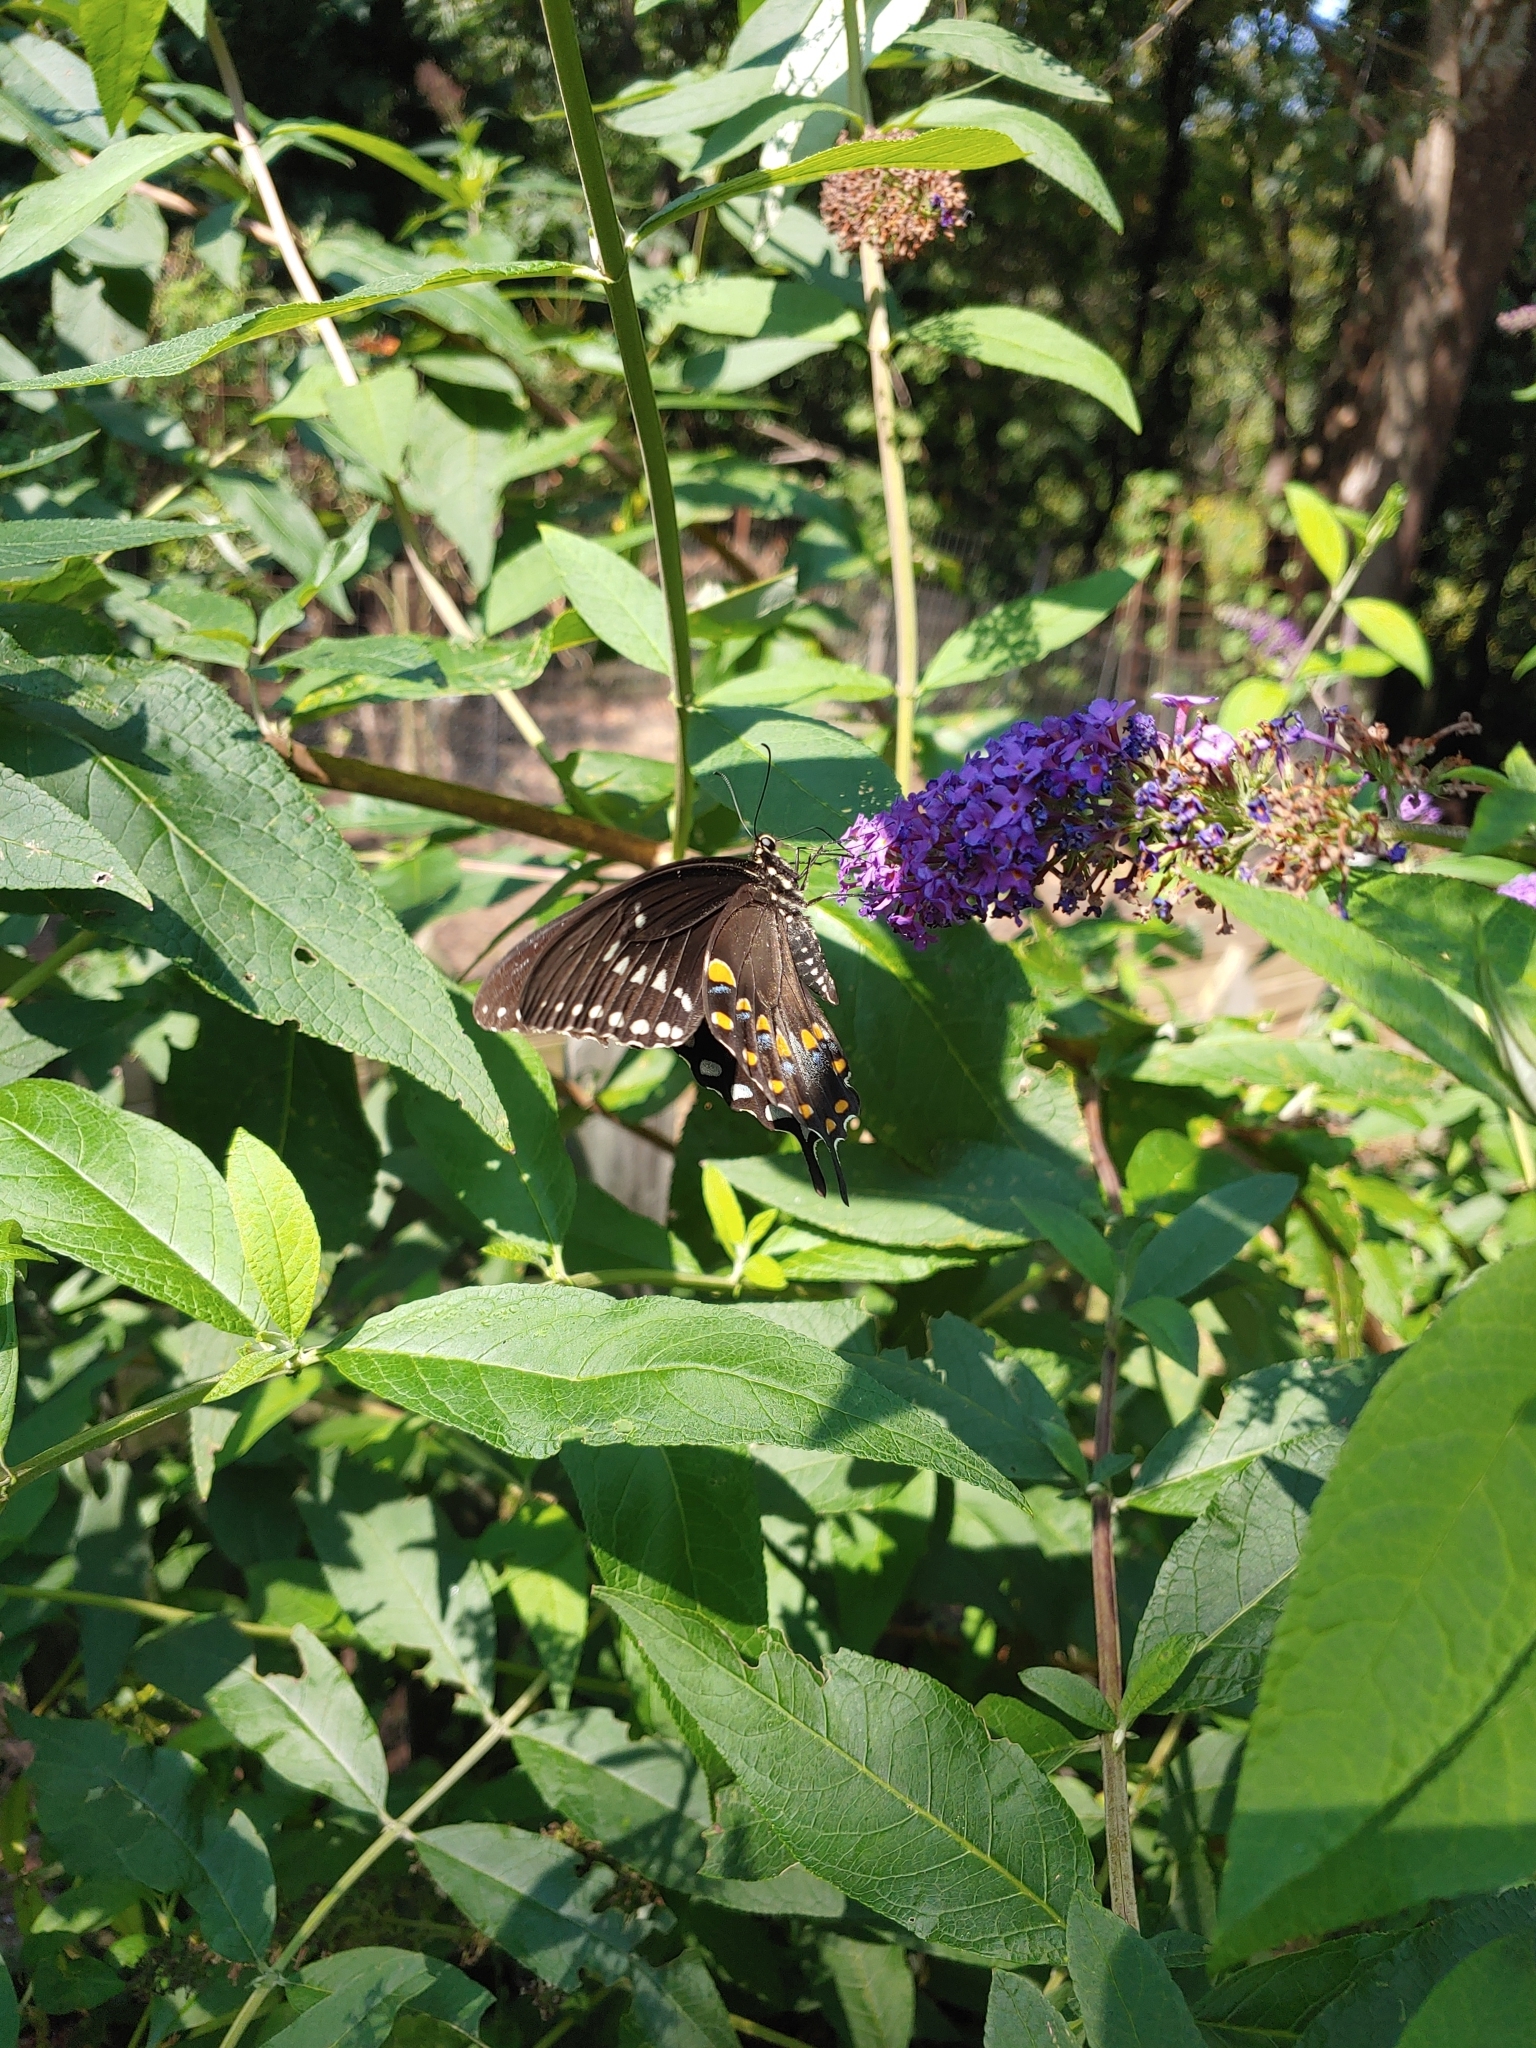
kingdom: Animalia
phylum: Arthropoda
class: Insecta
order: Lepidoptera
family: Papilionidae
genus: Papilio
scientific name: Papilio troilus
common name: Spicebush swallowtail
